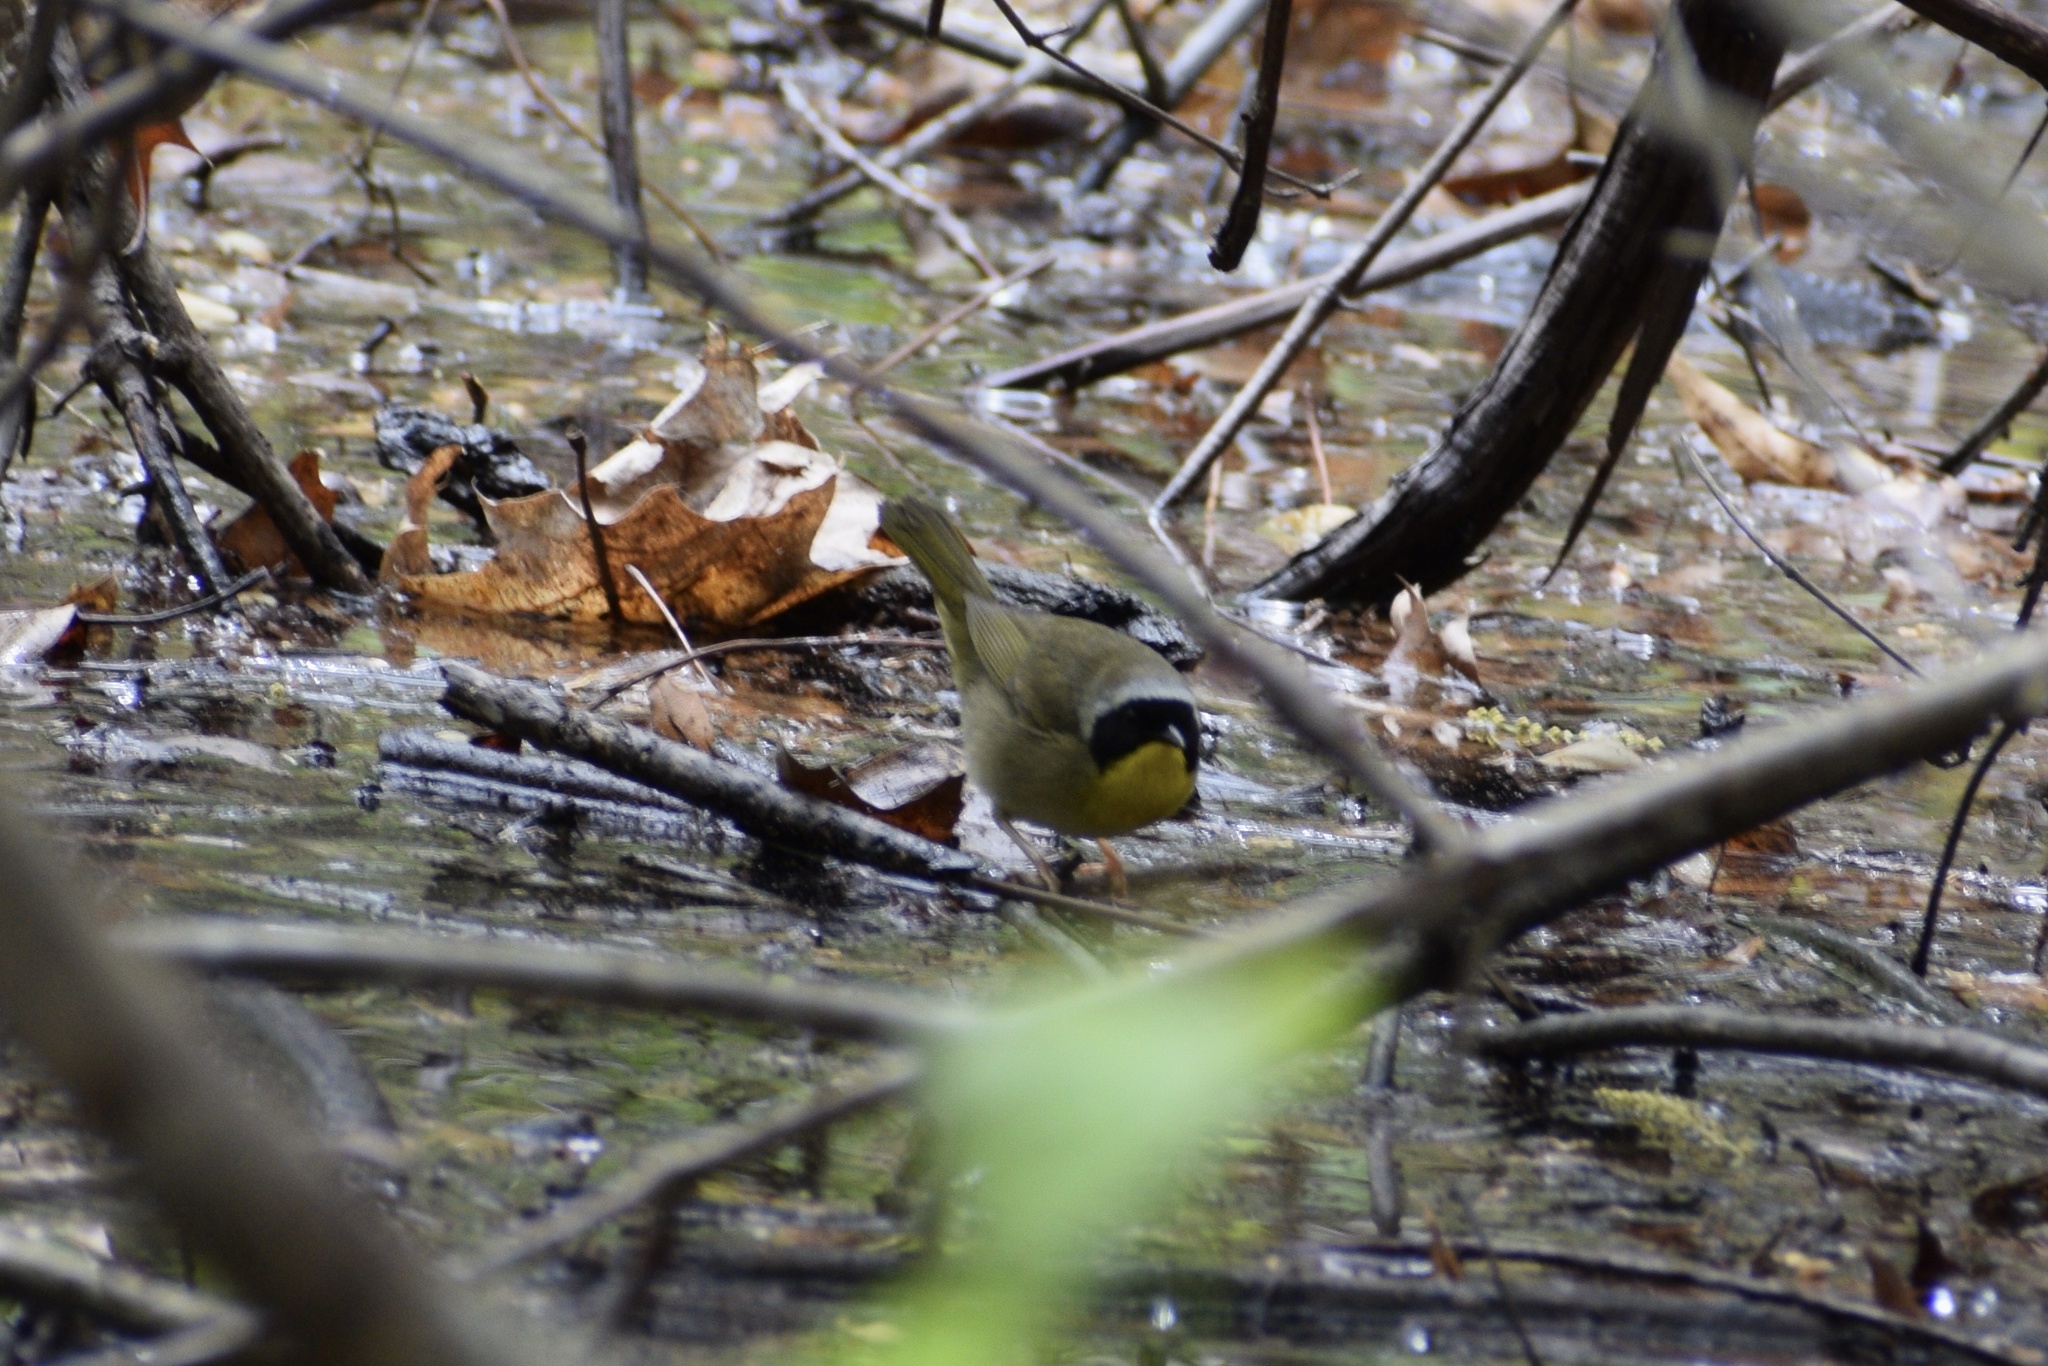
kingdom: Animalia
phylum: Chordata
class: Aves
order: Passeriformes
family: Parulidae
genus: Geothlypis
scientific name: Geothlypis trichas
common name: Common yellowthroat
